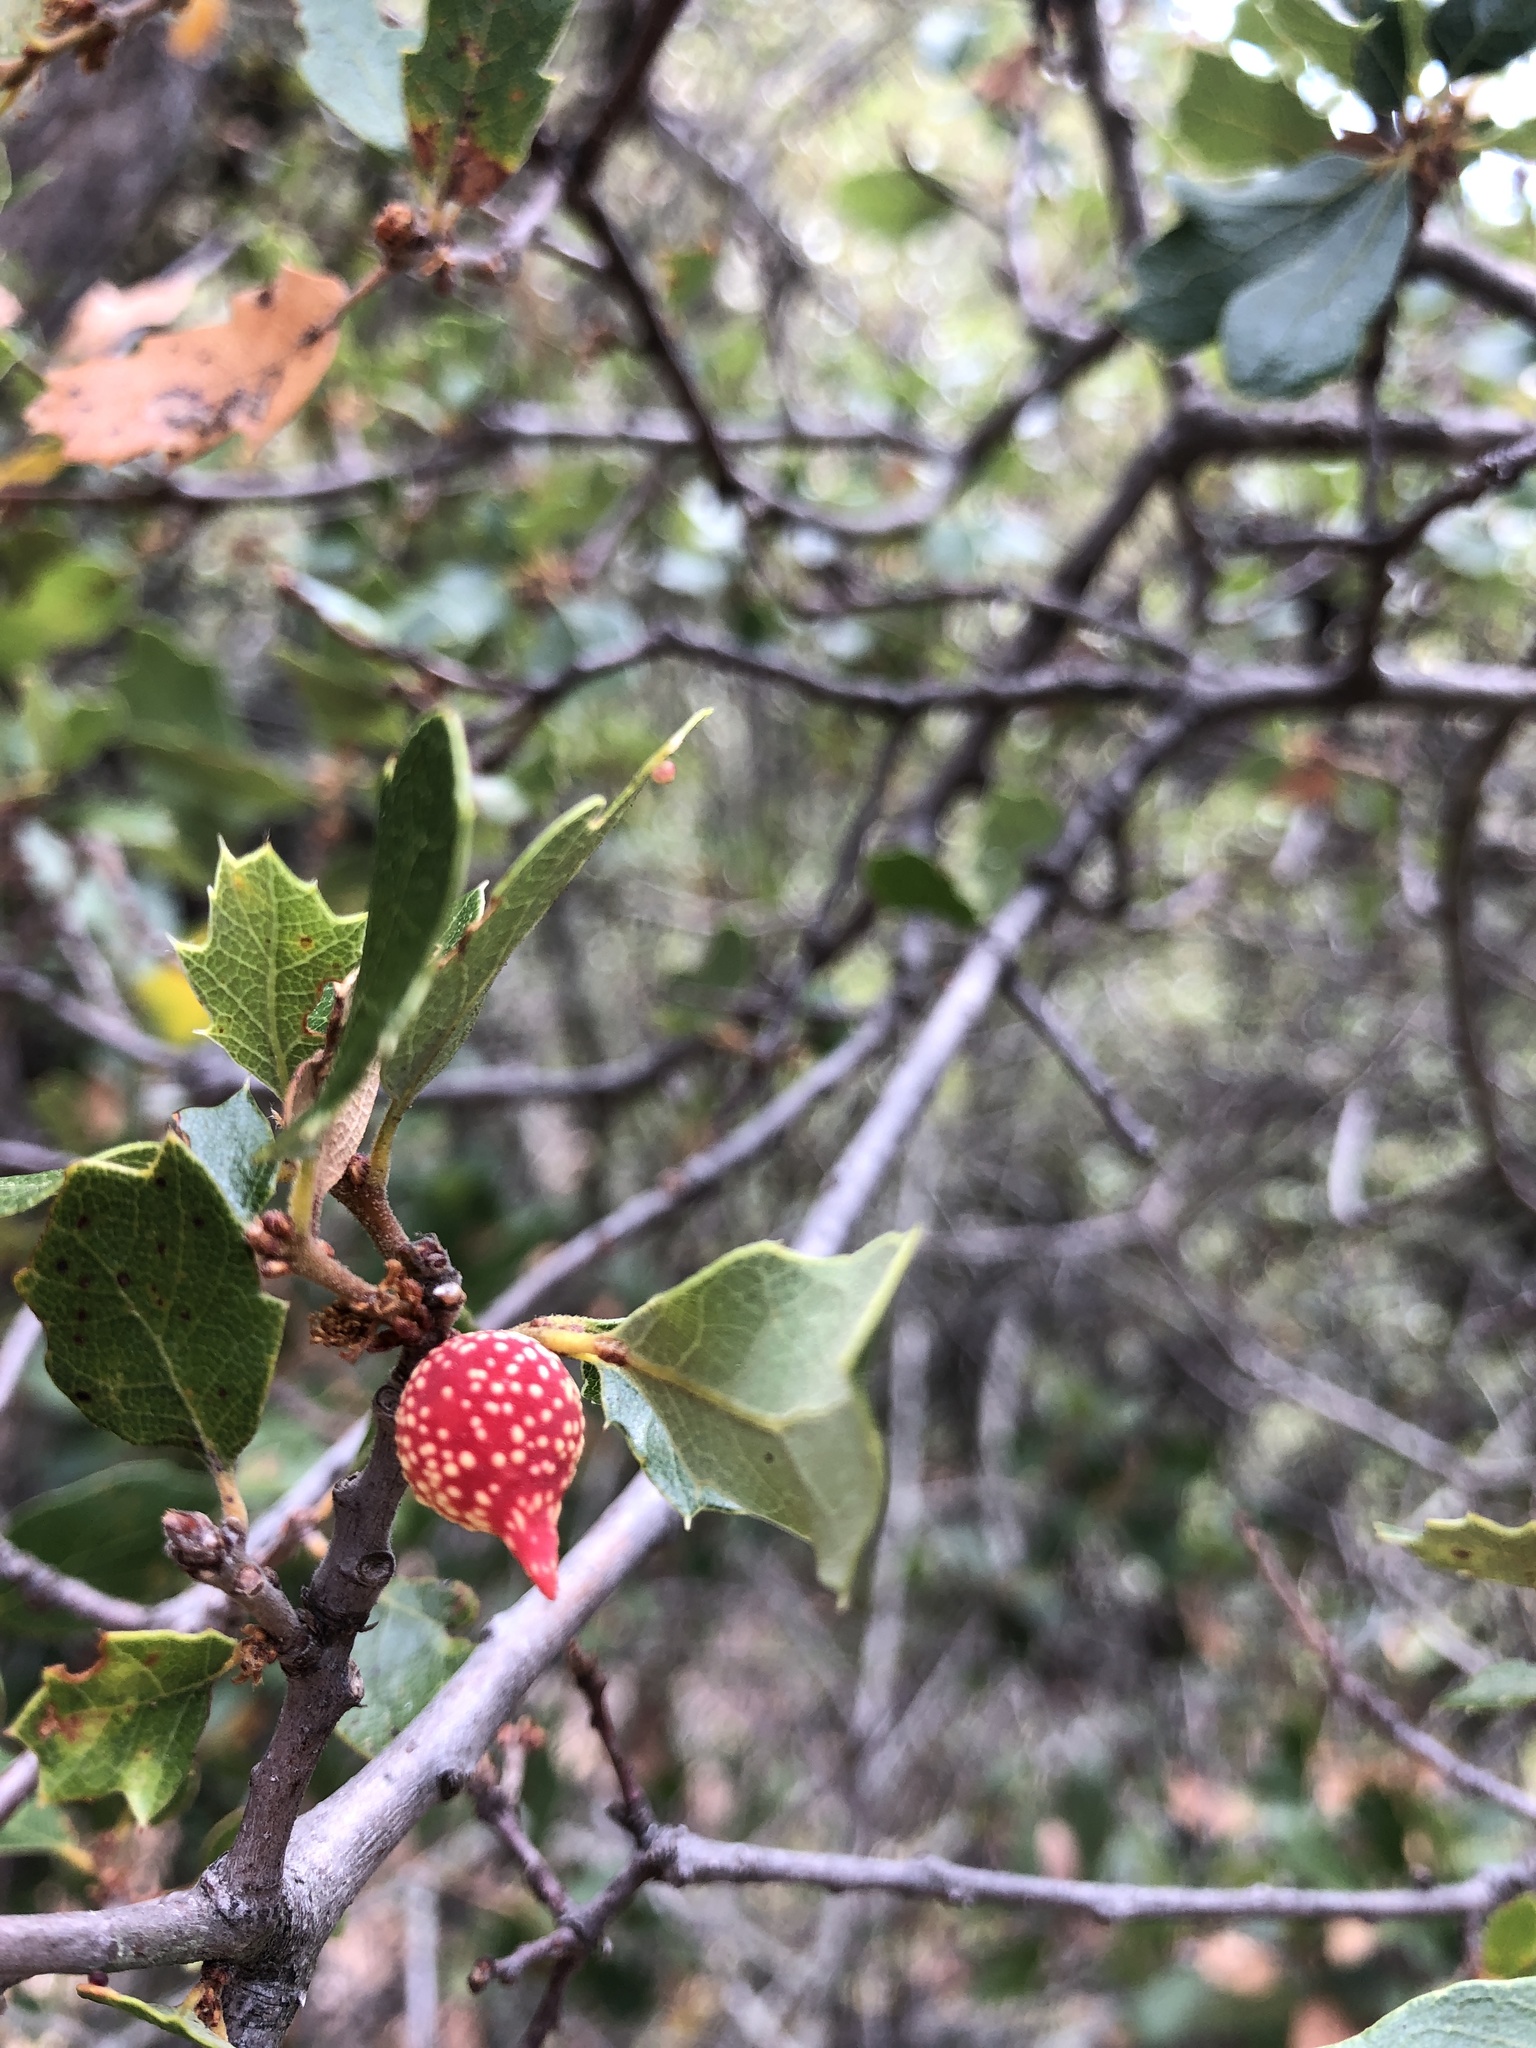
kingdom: Animalia
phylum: Arthropoda
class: Insecta
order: Hymenoptera
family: Cynipidae
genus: Burnettweldia
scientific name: Burnettweldia
